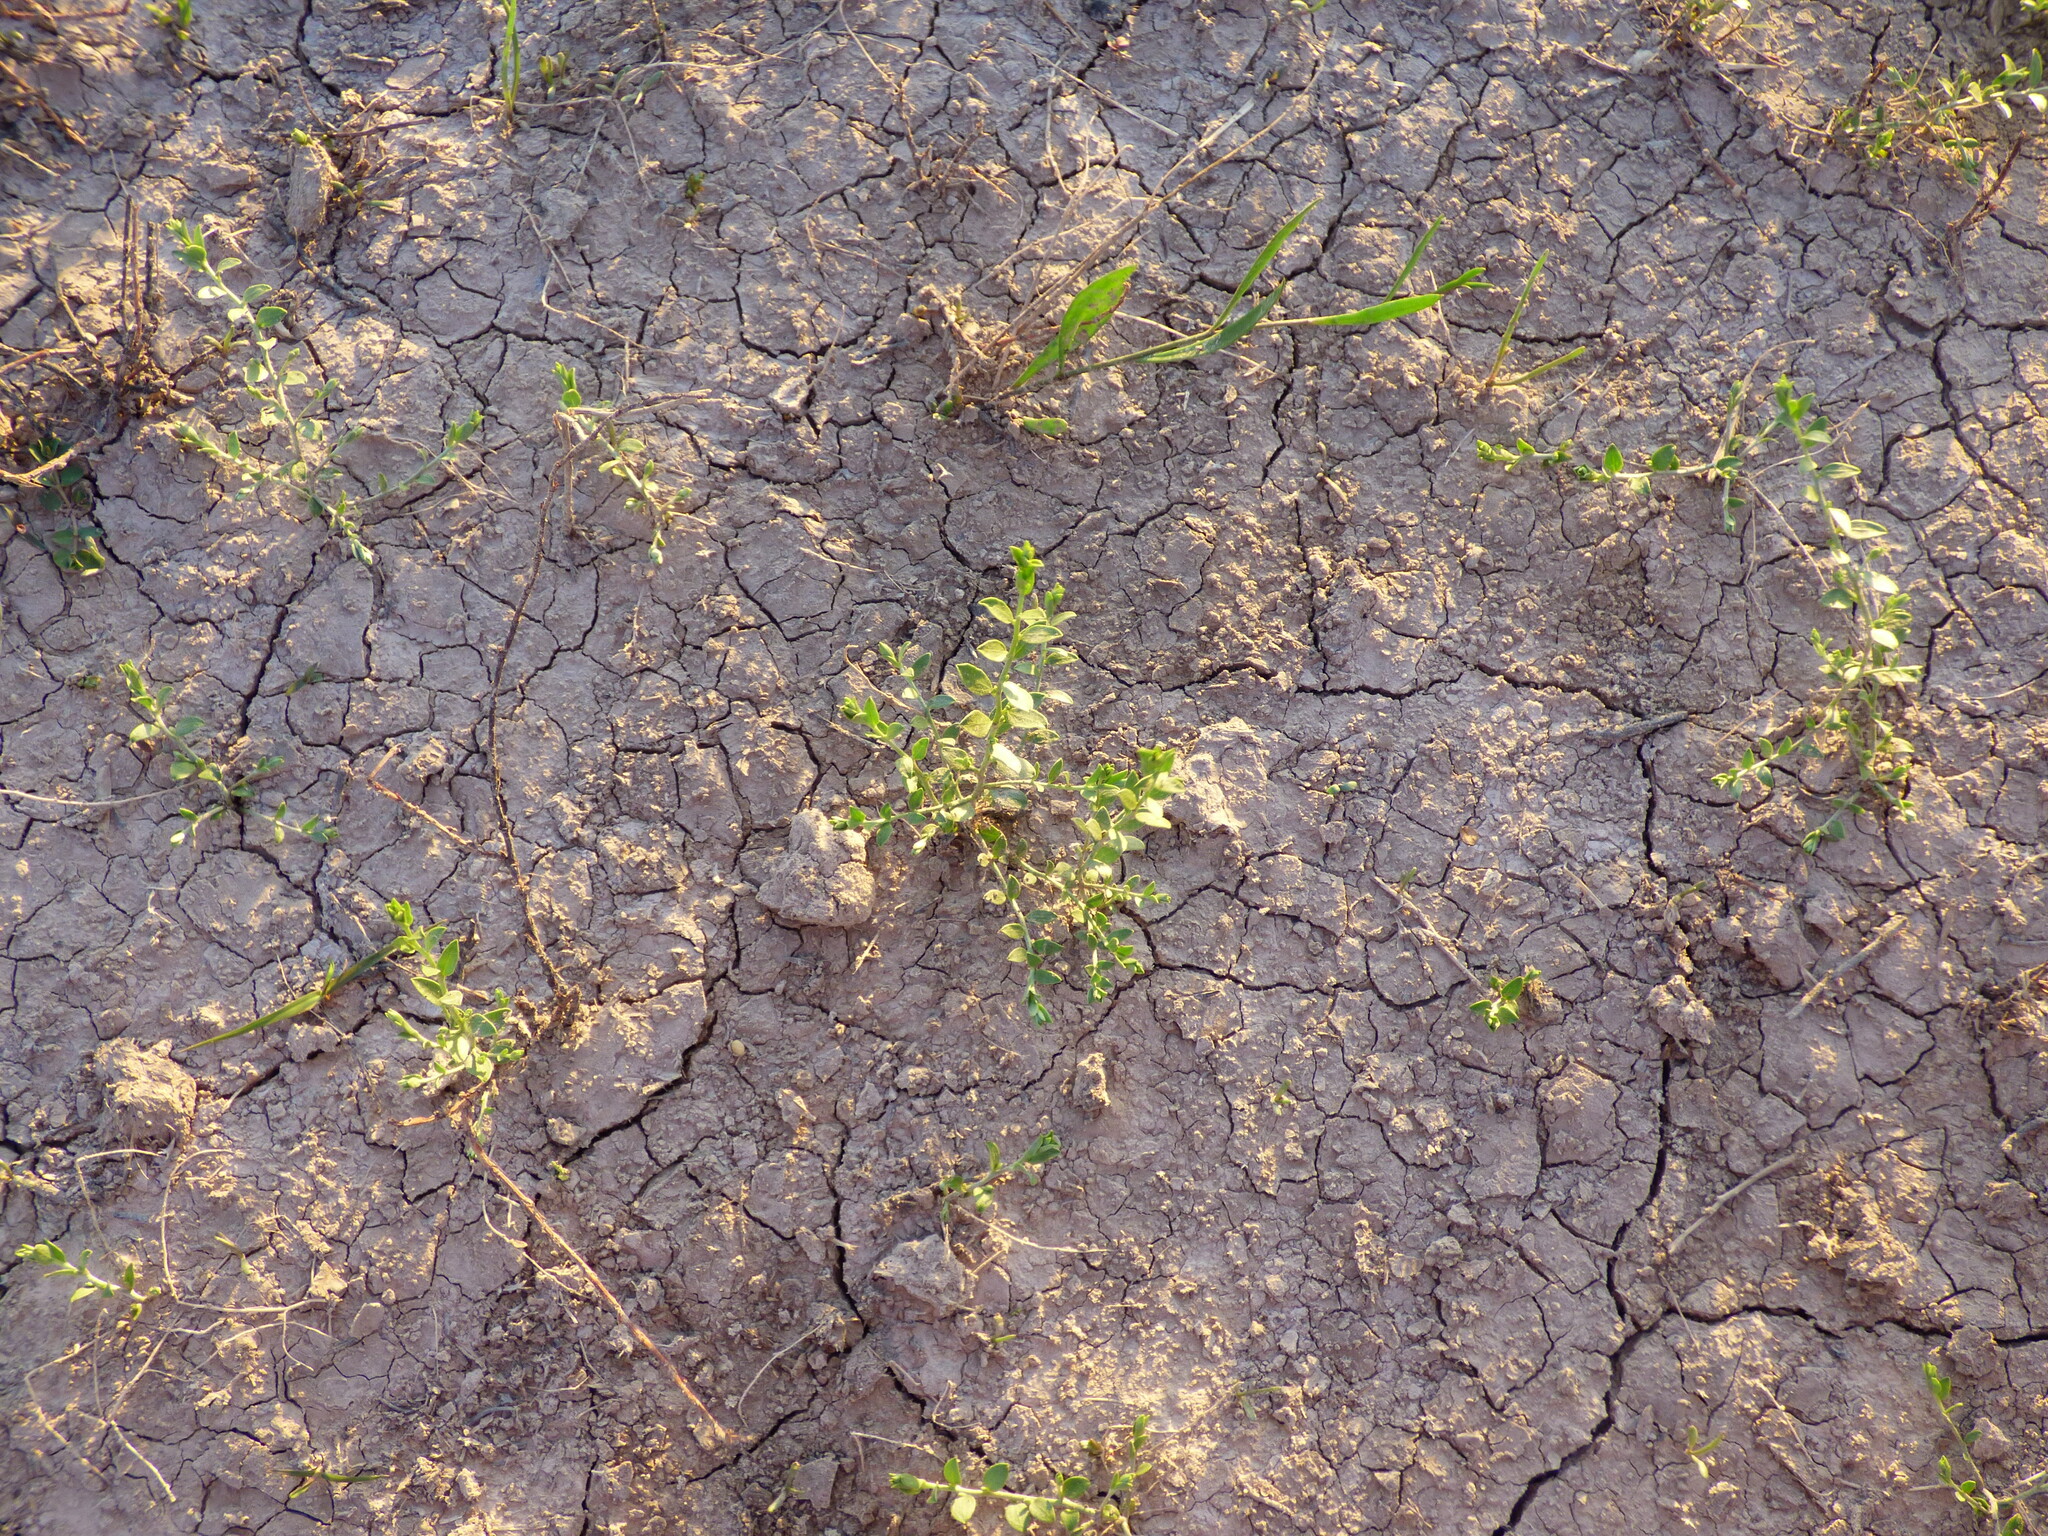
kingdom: Plantae
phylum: Tracheophyta
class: Magnoliopsida
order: Lamiales
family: Oleaceae
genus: Menodora
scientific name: Menodora integrifolia
